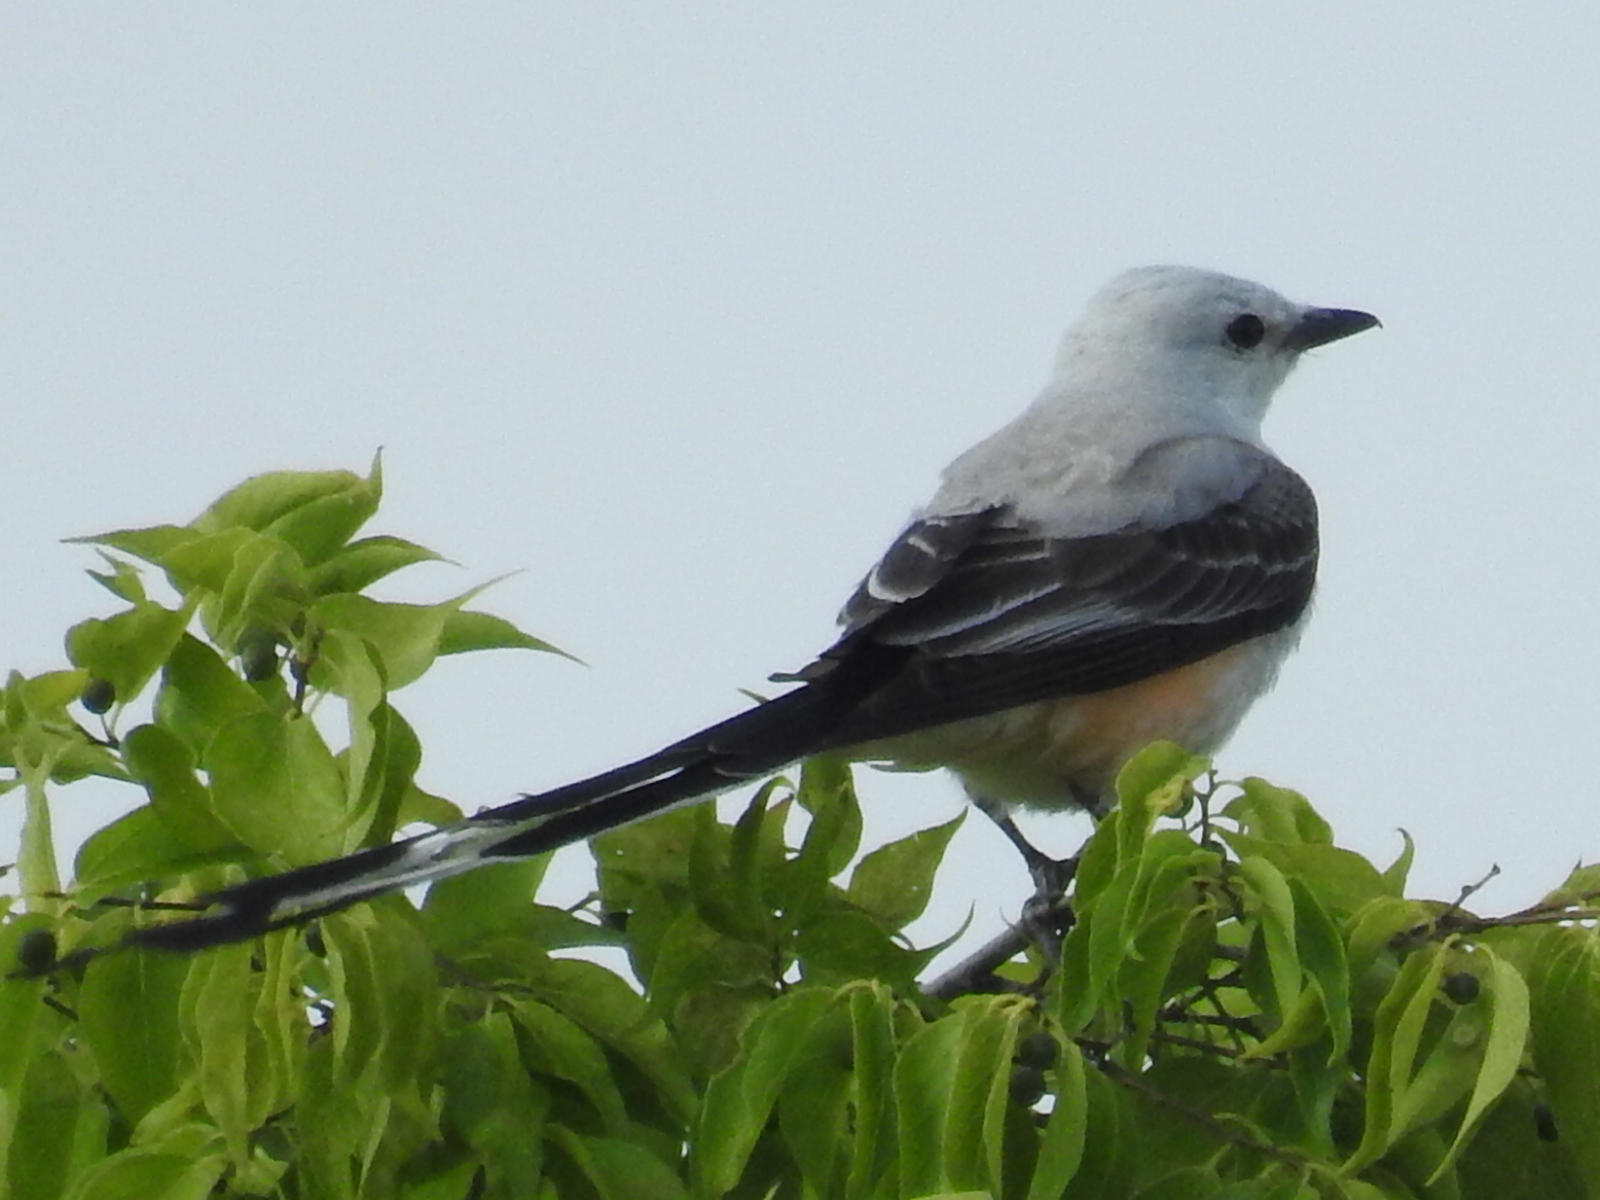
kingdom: Animalia
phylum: Chordata
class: Aves
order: Passeriformes
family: Tyrannidae
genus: Tyrannus
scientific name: Tyrannus forficatus
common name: Scissor-tailed flycatcher
